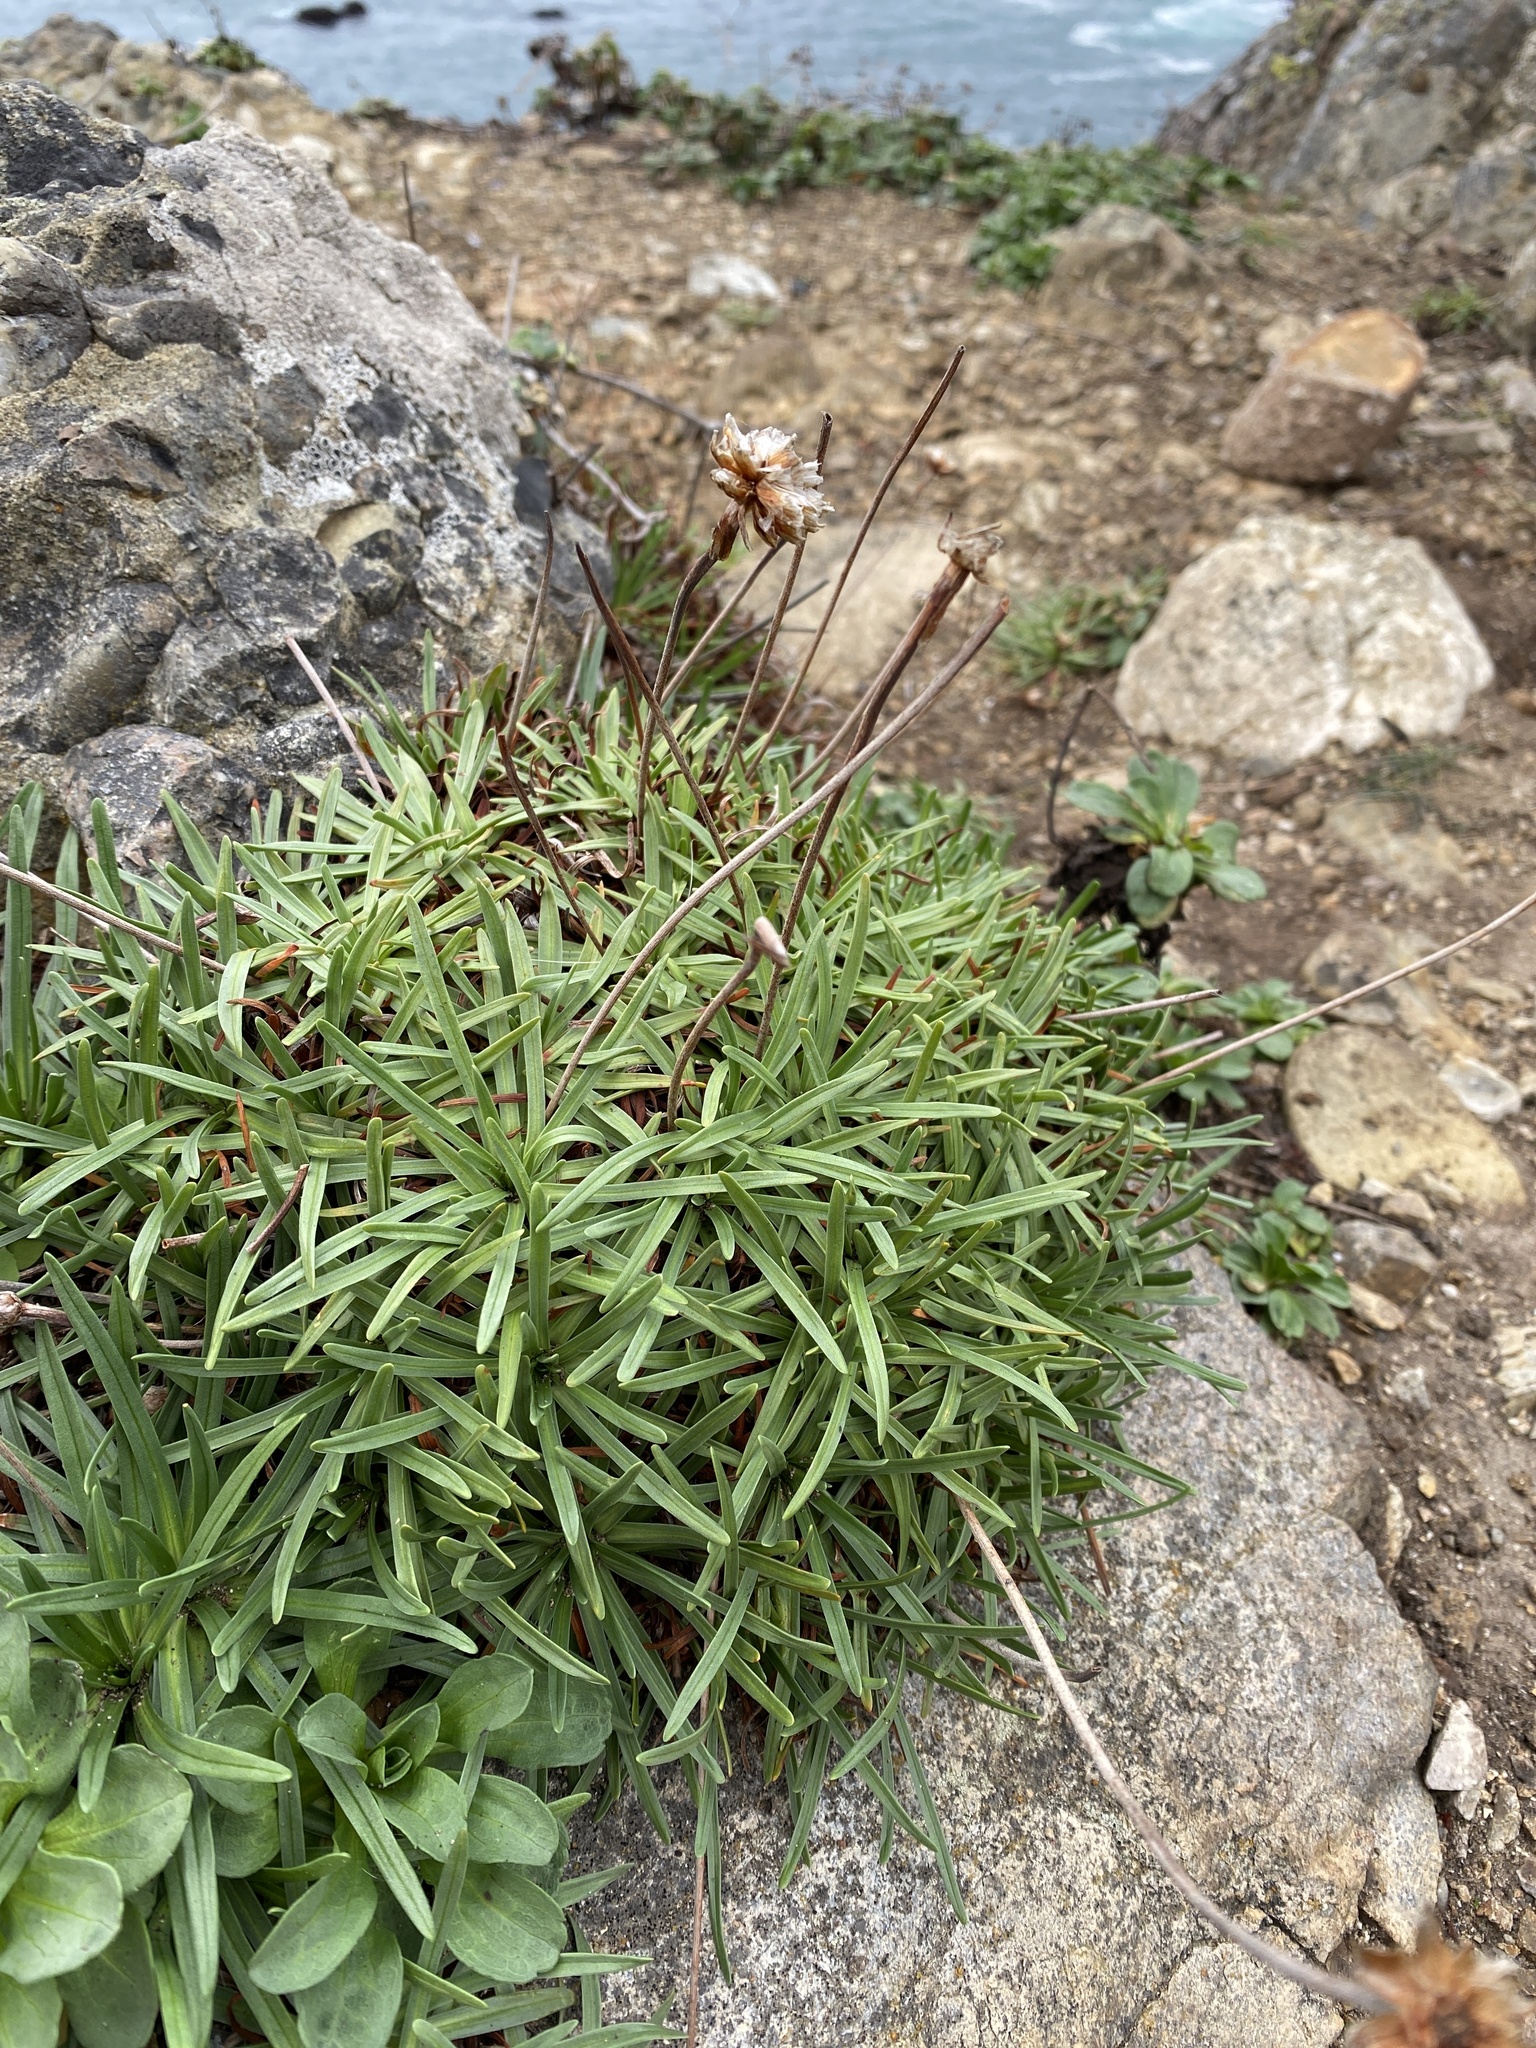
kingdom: Plantae
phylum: Tracheophyta
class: Magnoliopsida
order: Caryophyllales
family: Plumbaginaceae
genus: Armeria
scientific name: Armeria maritima
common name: Thrift
